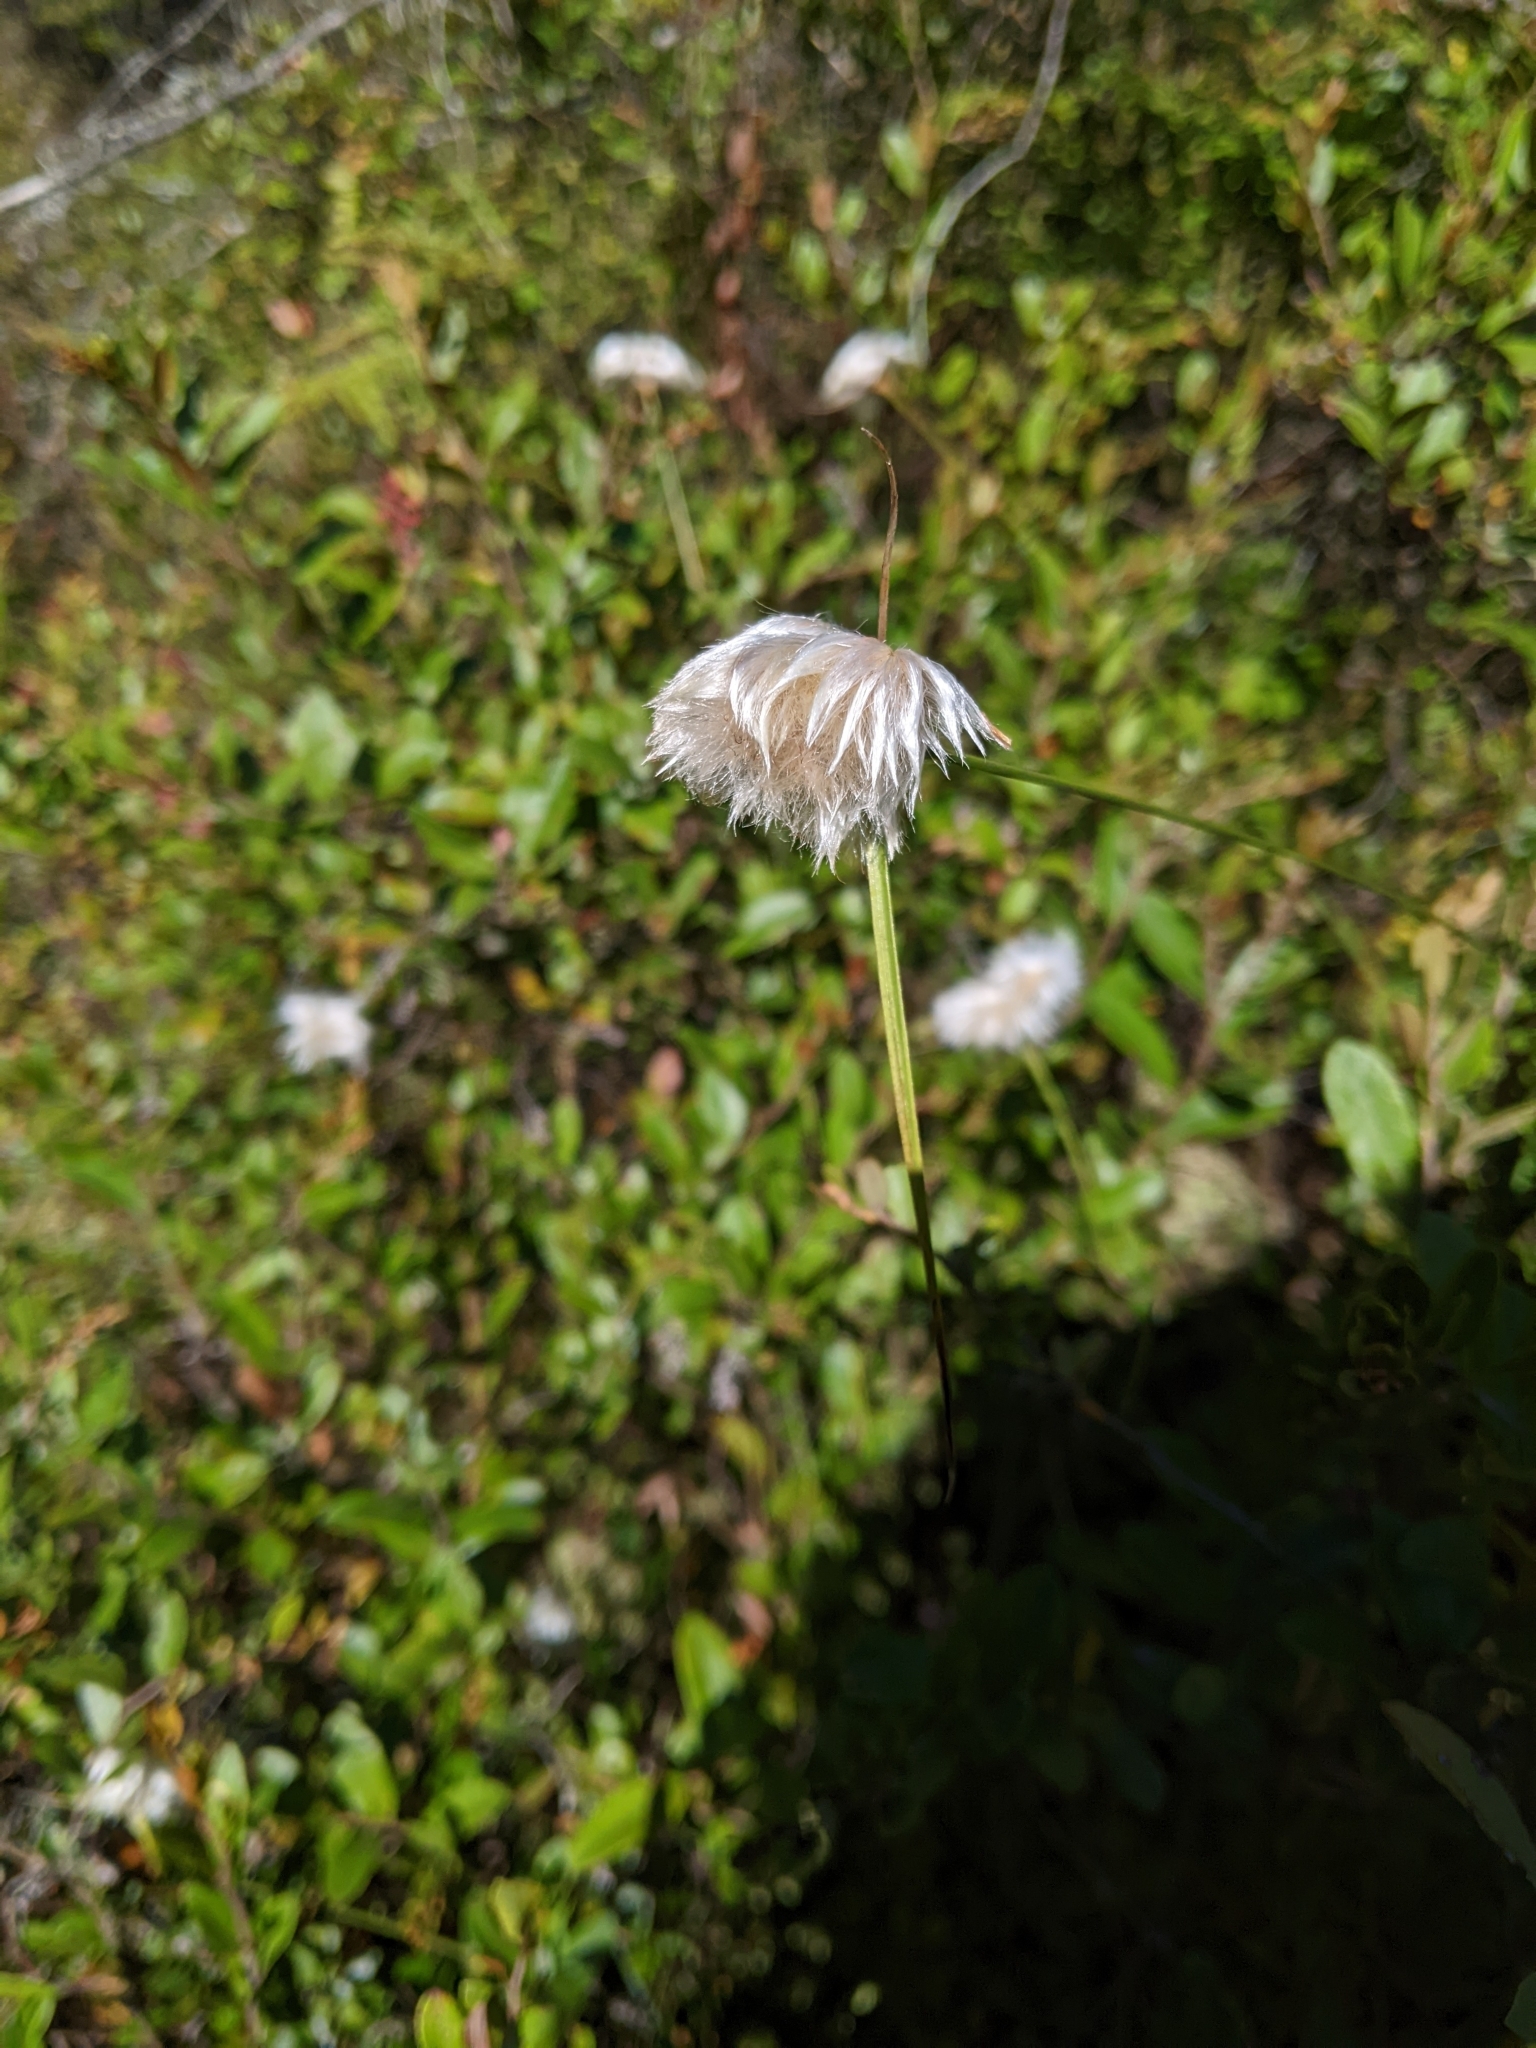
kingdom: Plantae
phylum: Tracheophyta
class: Liliopsida
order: Poales
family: Cyperaceae
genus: Eriophorum
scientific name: Eriophorum virginicum
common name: Tawny cottongrass
